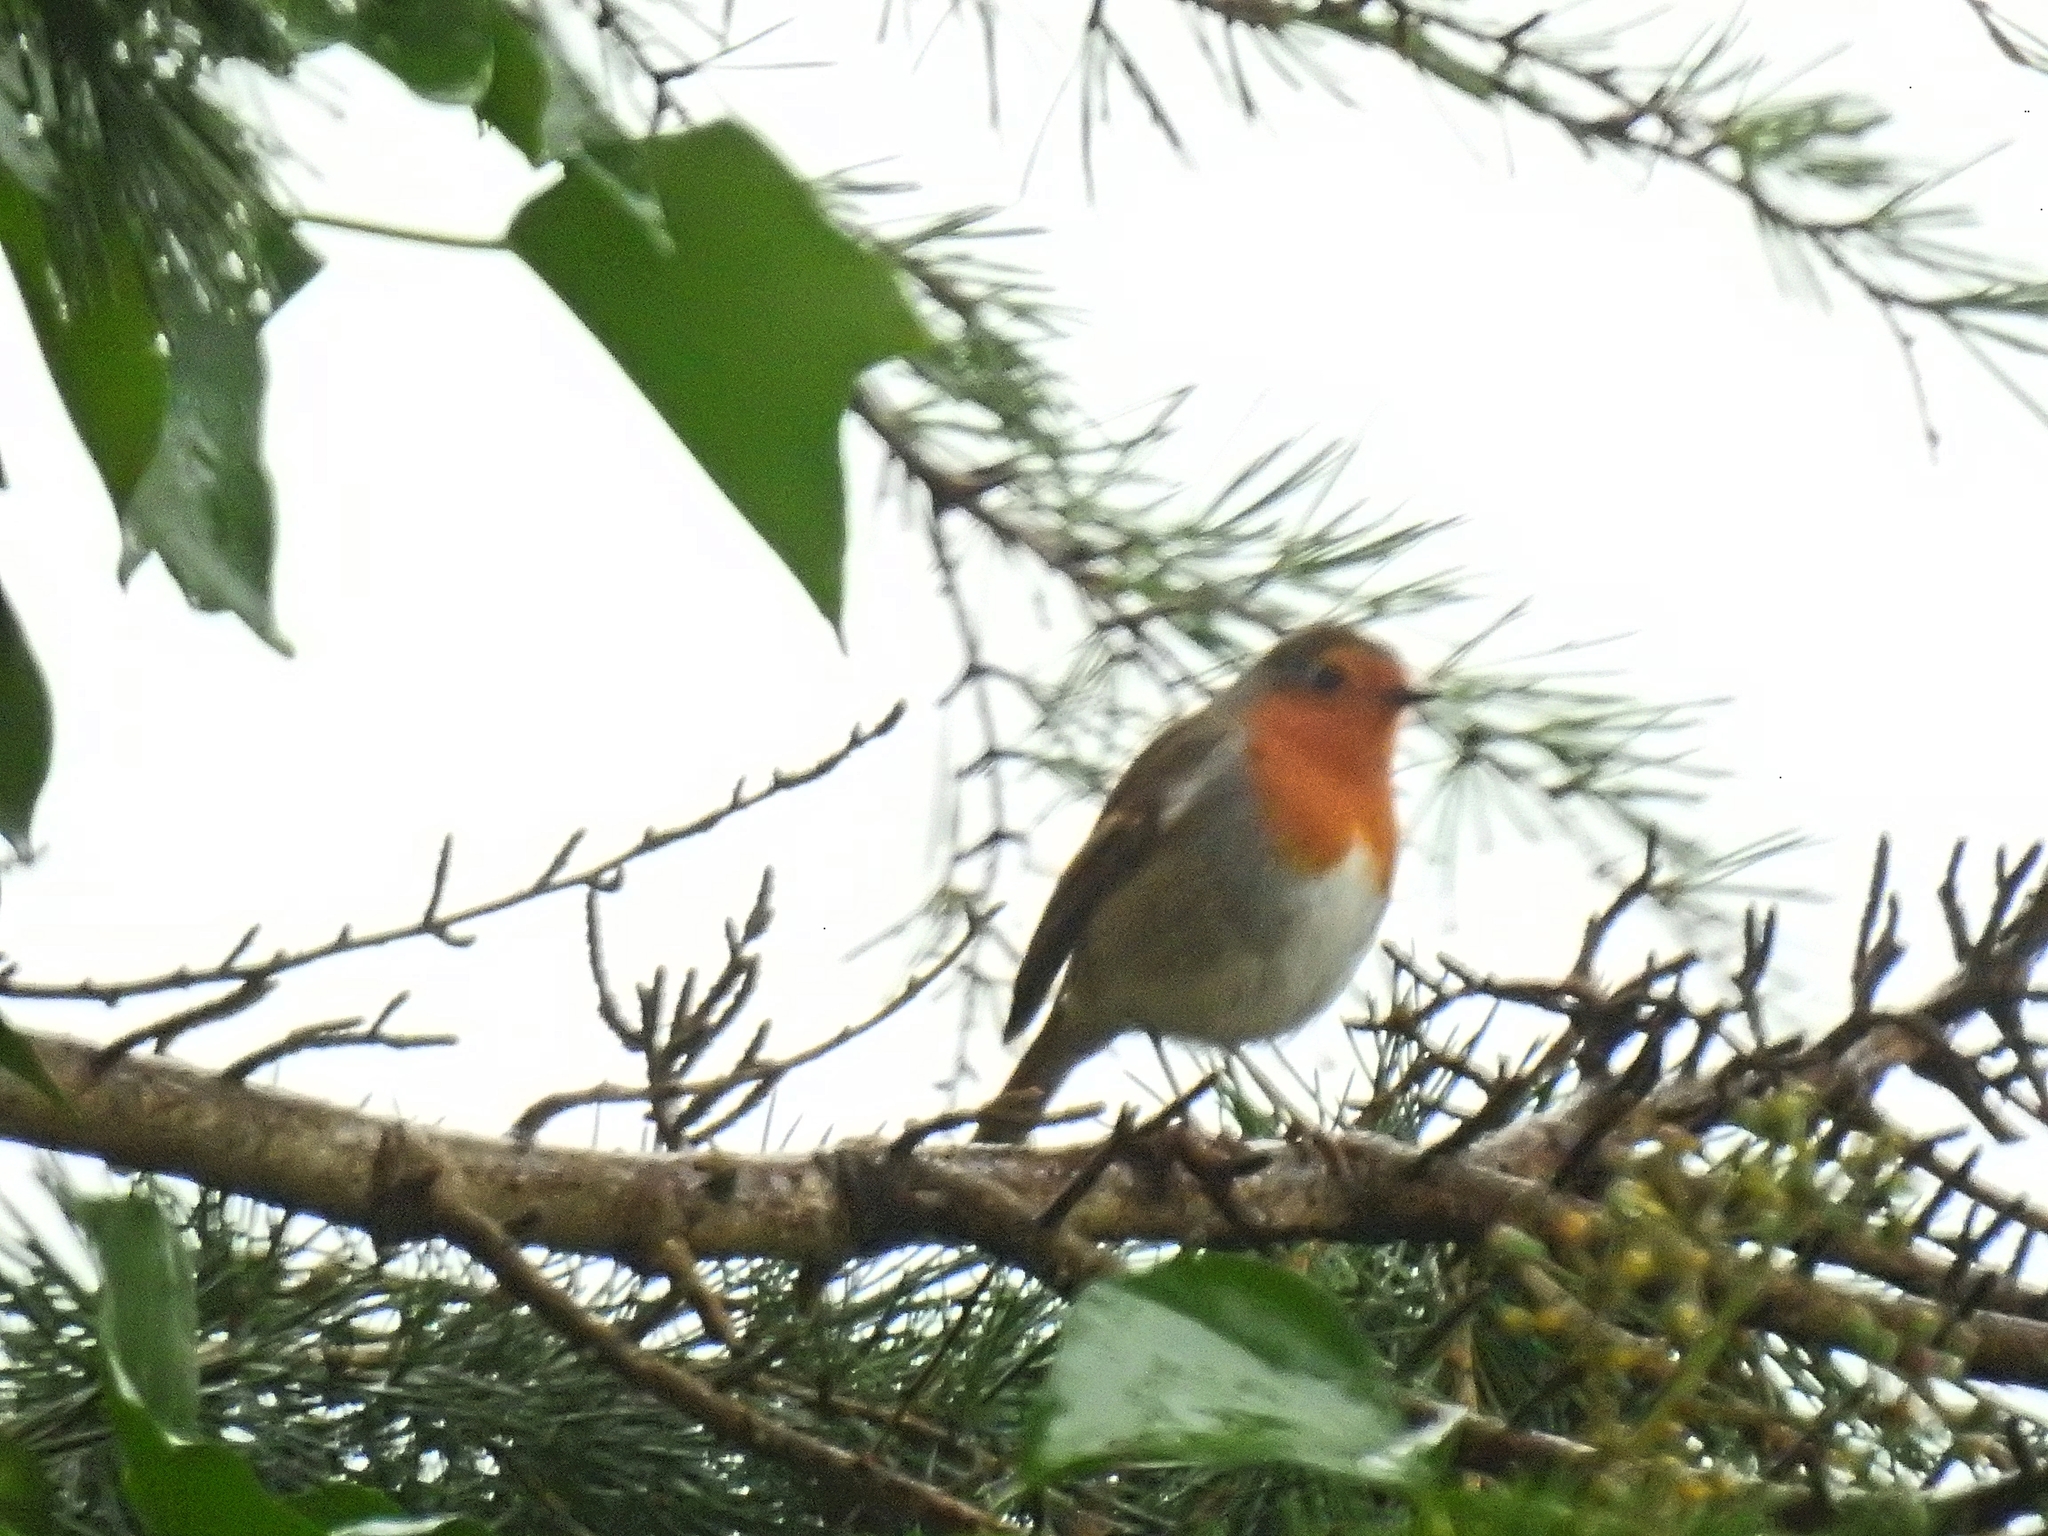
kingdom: Animalia
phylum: Chordata
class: Aves
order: Passeriformes
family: Muscicapidae
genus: Erithacus
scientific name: Erithacus rubecula
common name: European robin
